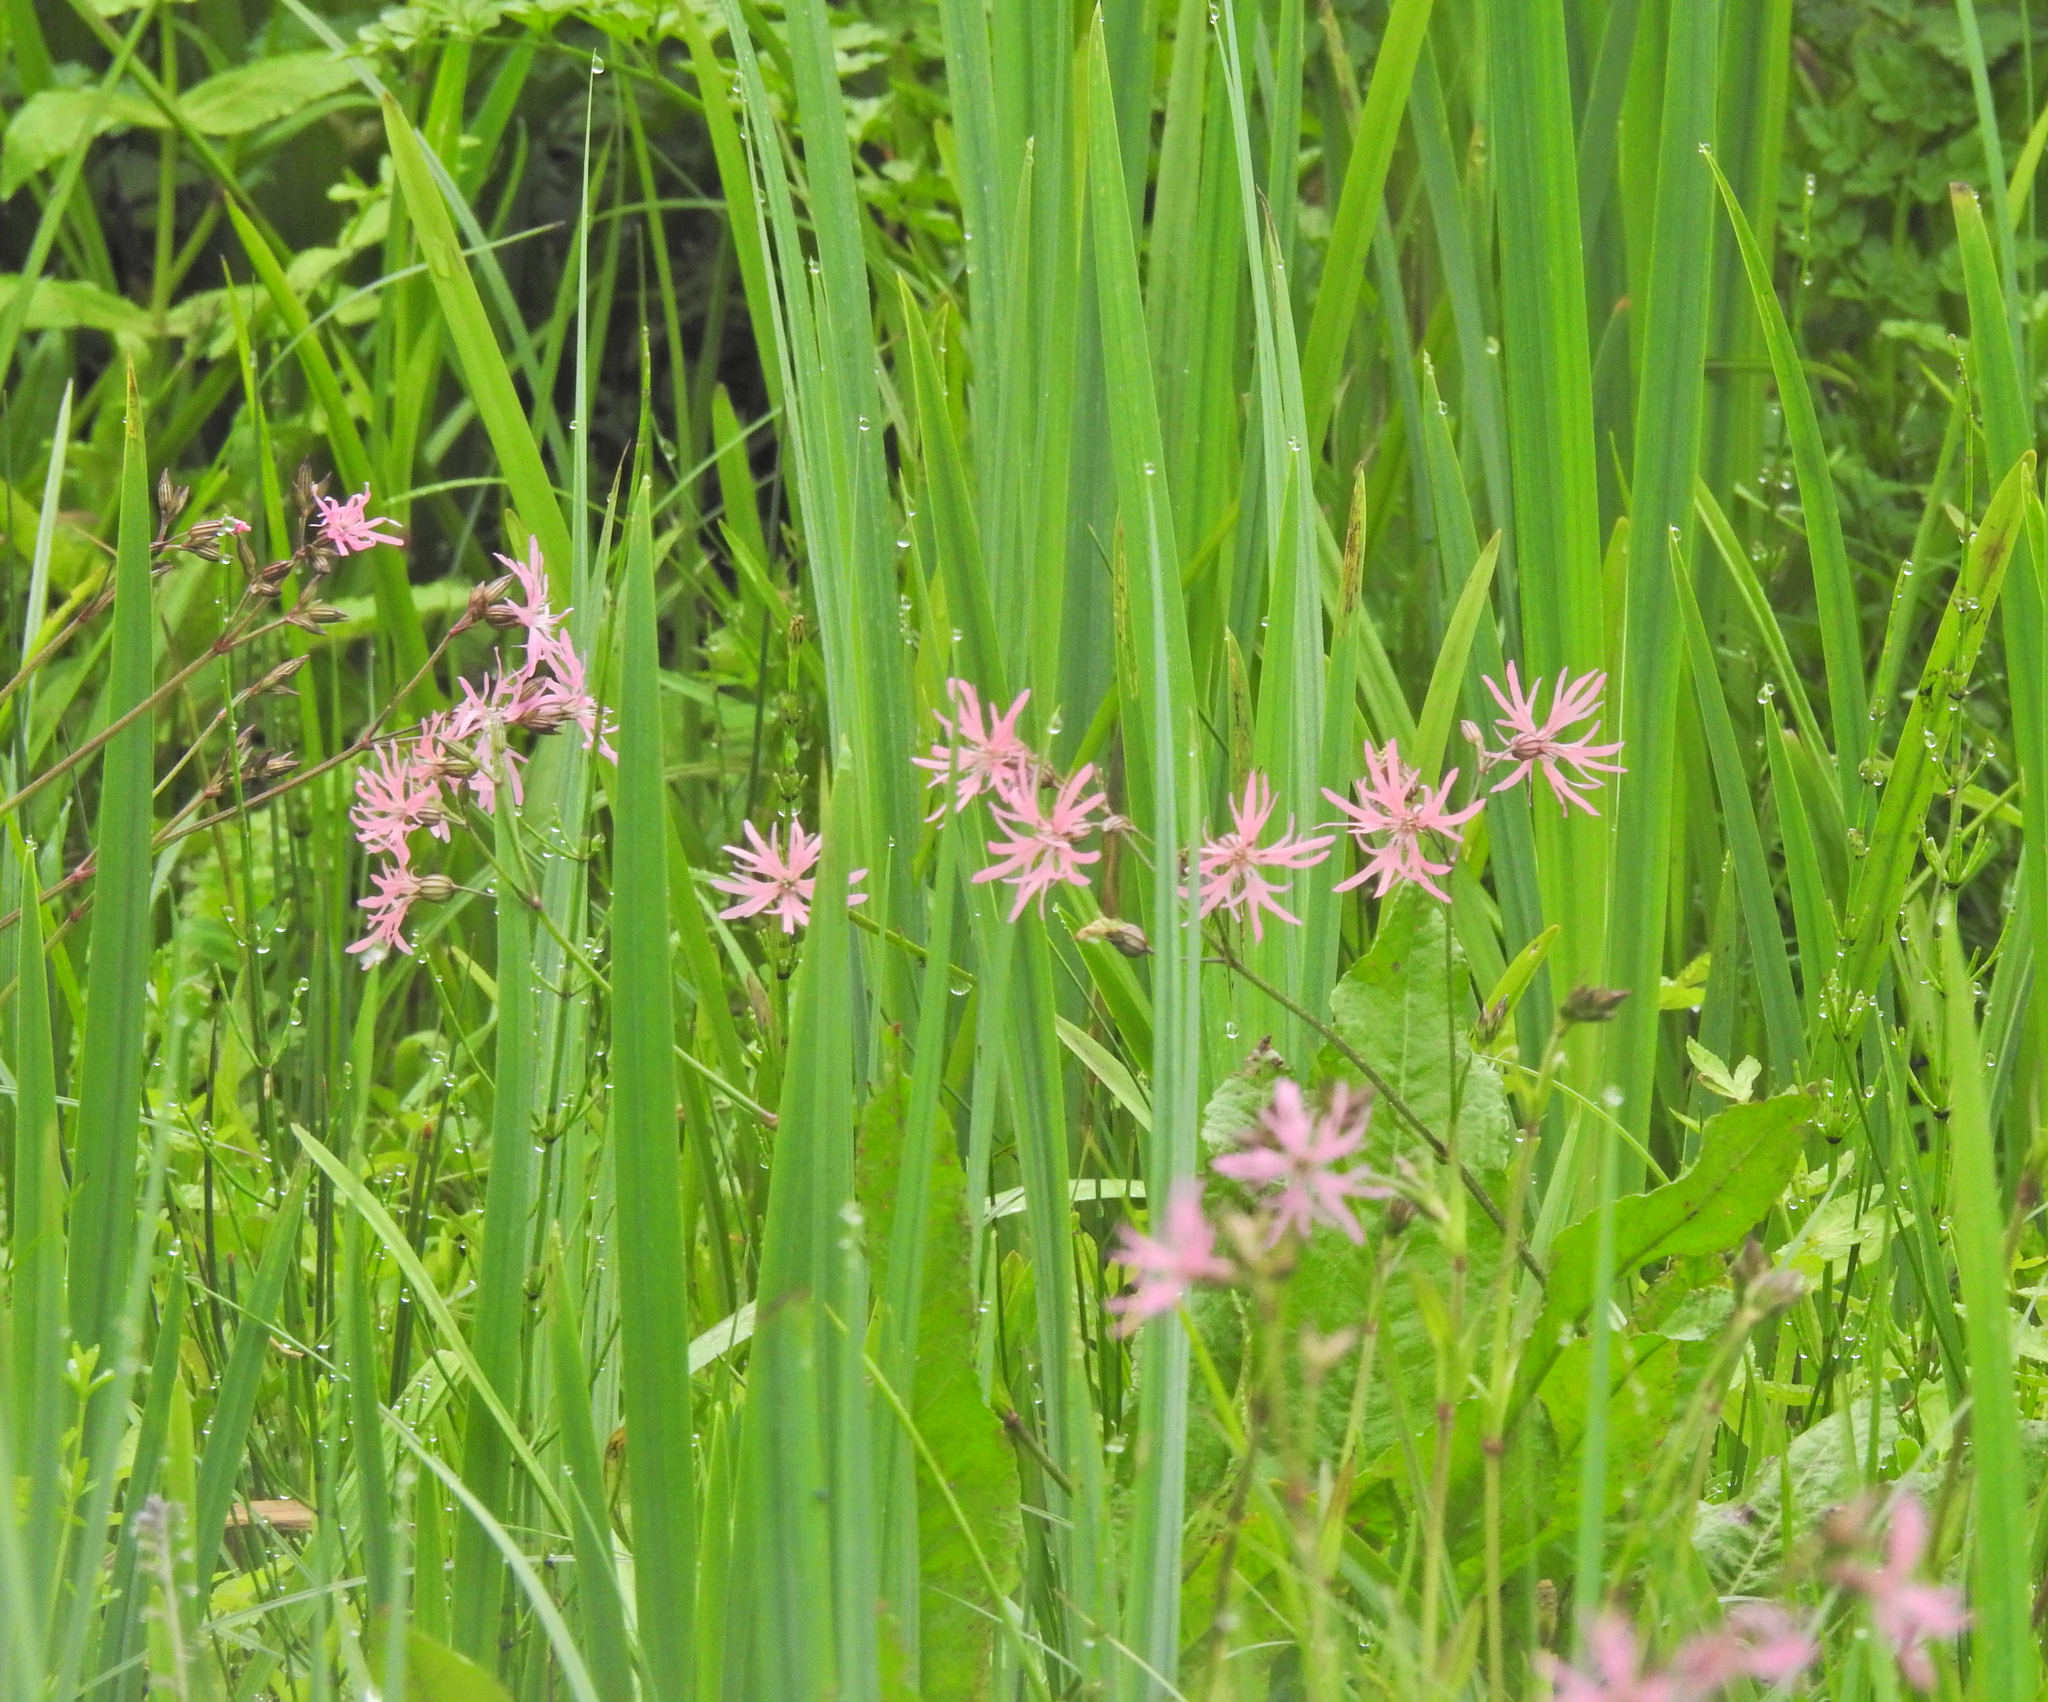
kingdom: Plantae
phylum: Tracheophyta
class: Magnoliopsida
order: Caryophyllales
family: Caryophyllaceae
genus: Silene
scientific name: Silene flos-cuculi
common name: Ragged-robin
